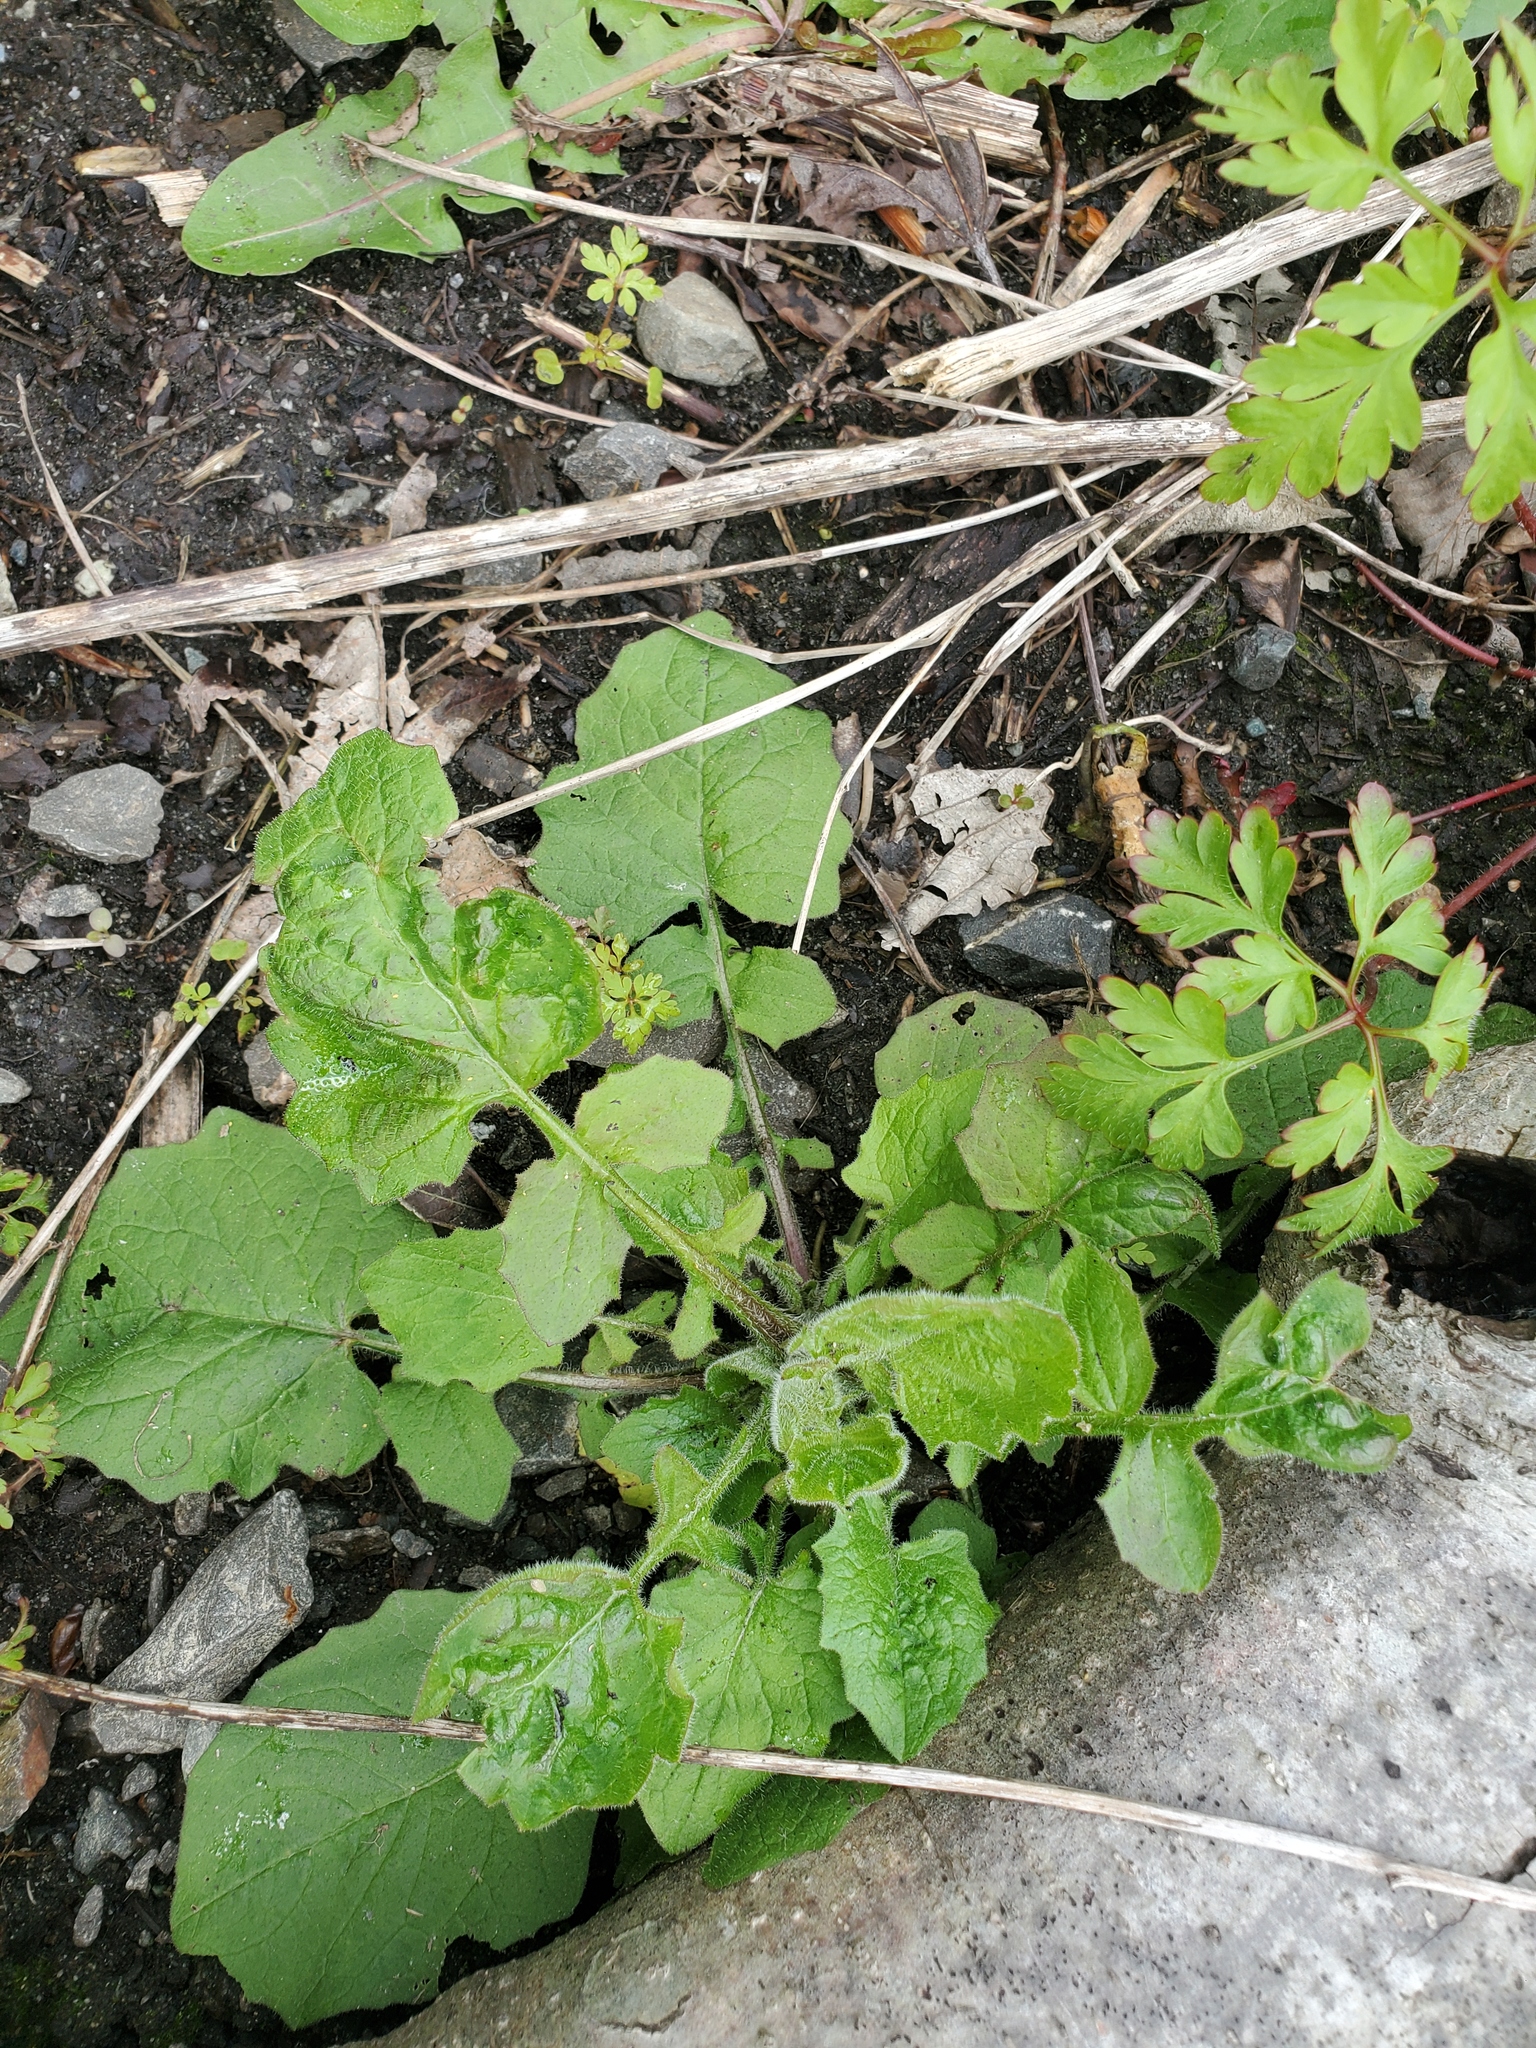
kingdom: Plantae
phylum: Tracheophyta
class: Magnoliopsida
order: Asterales
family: Asteraceae
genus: Lapsana
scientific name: Lapsana communis
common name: Nipplewort
